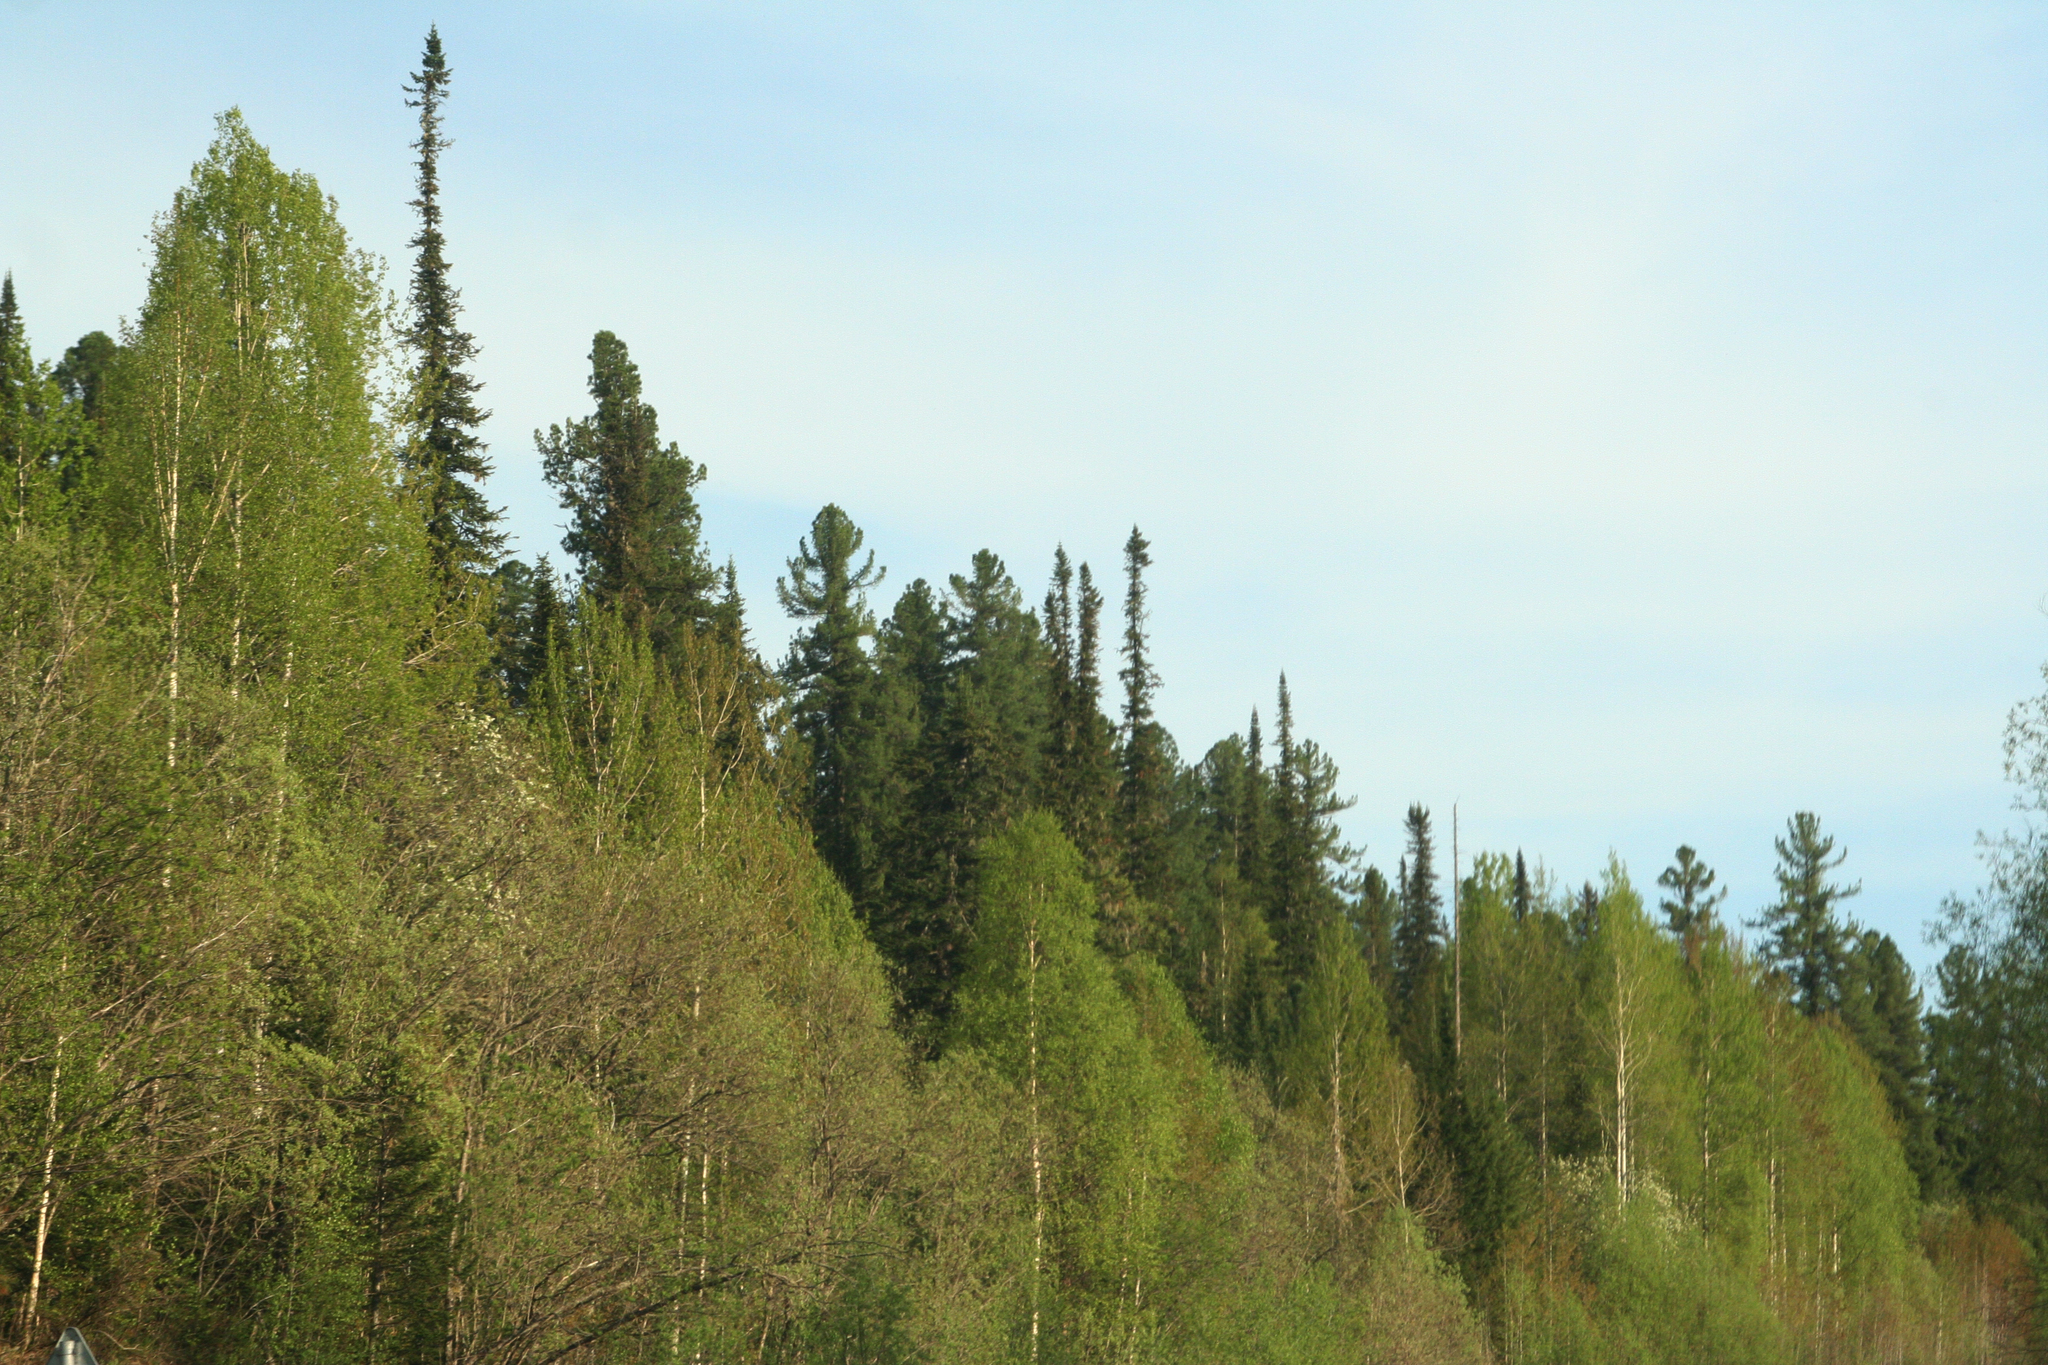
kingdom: Plantae
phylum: Tracheophyta
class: Pinopsida
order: Pinales
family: Pinaceae
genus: Pinus
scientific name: Pinus sibirica
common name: Siberian pine
